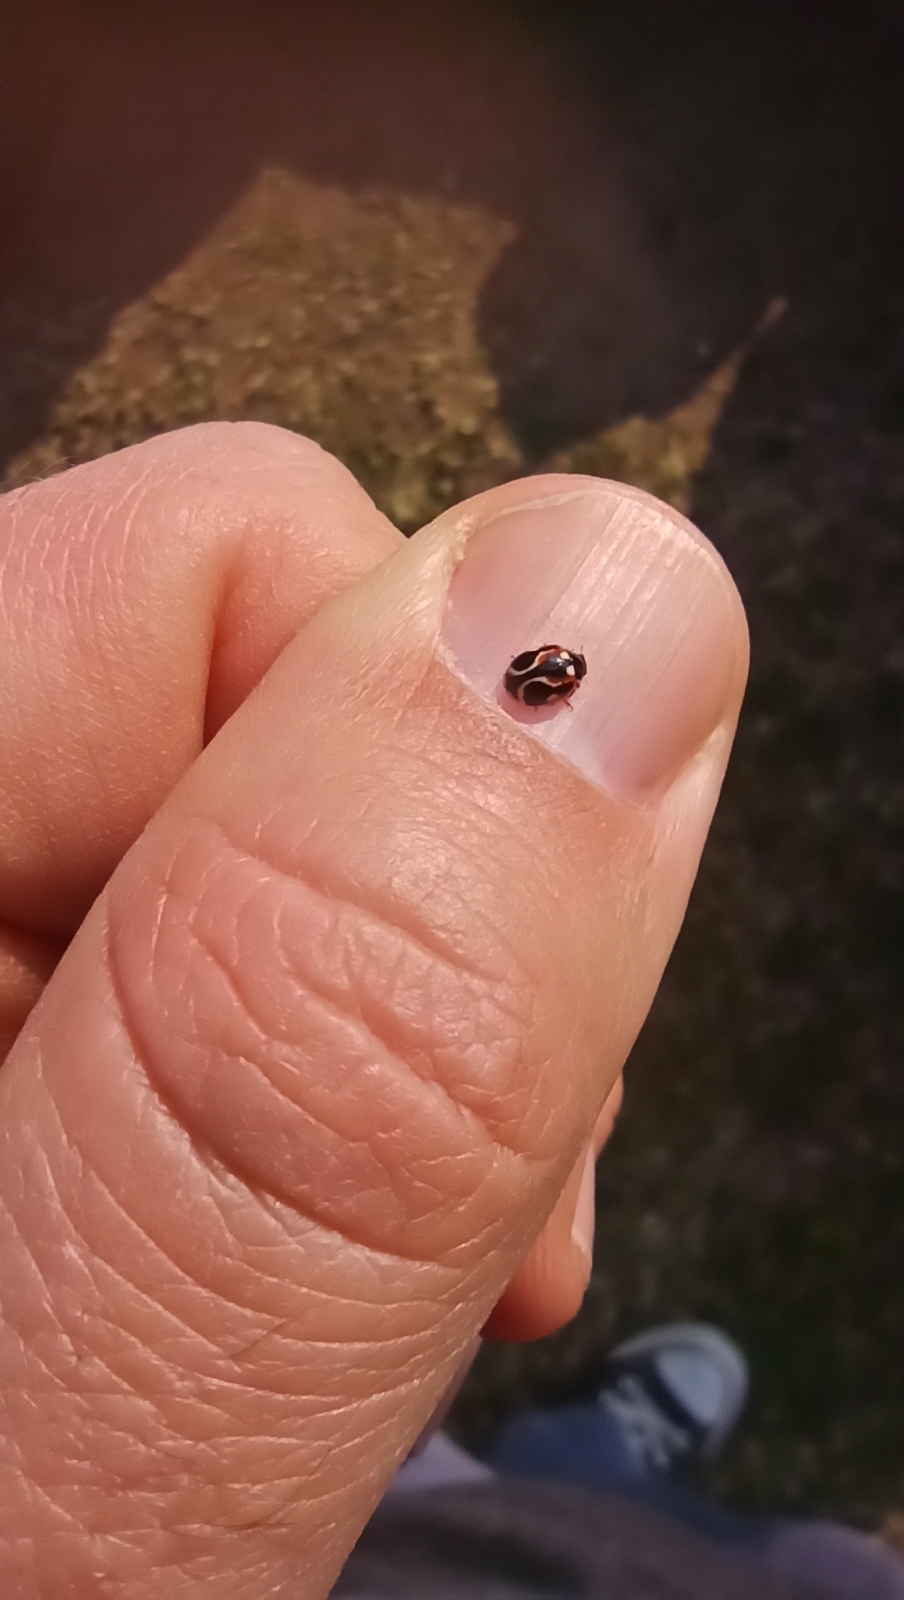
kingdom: Animalia
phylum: Arthropoda
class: Insecta
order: Coleoptera
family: Coccinellidae
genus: Cycloneda
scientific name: Cycloneda ancoralis
